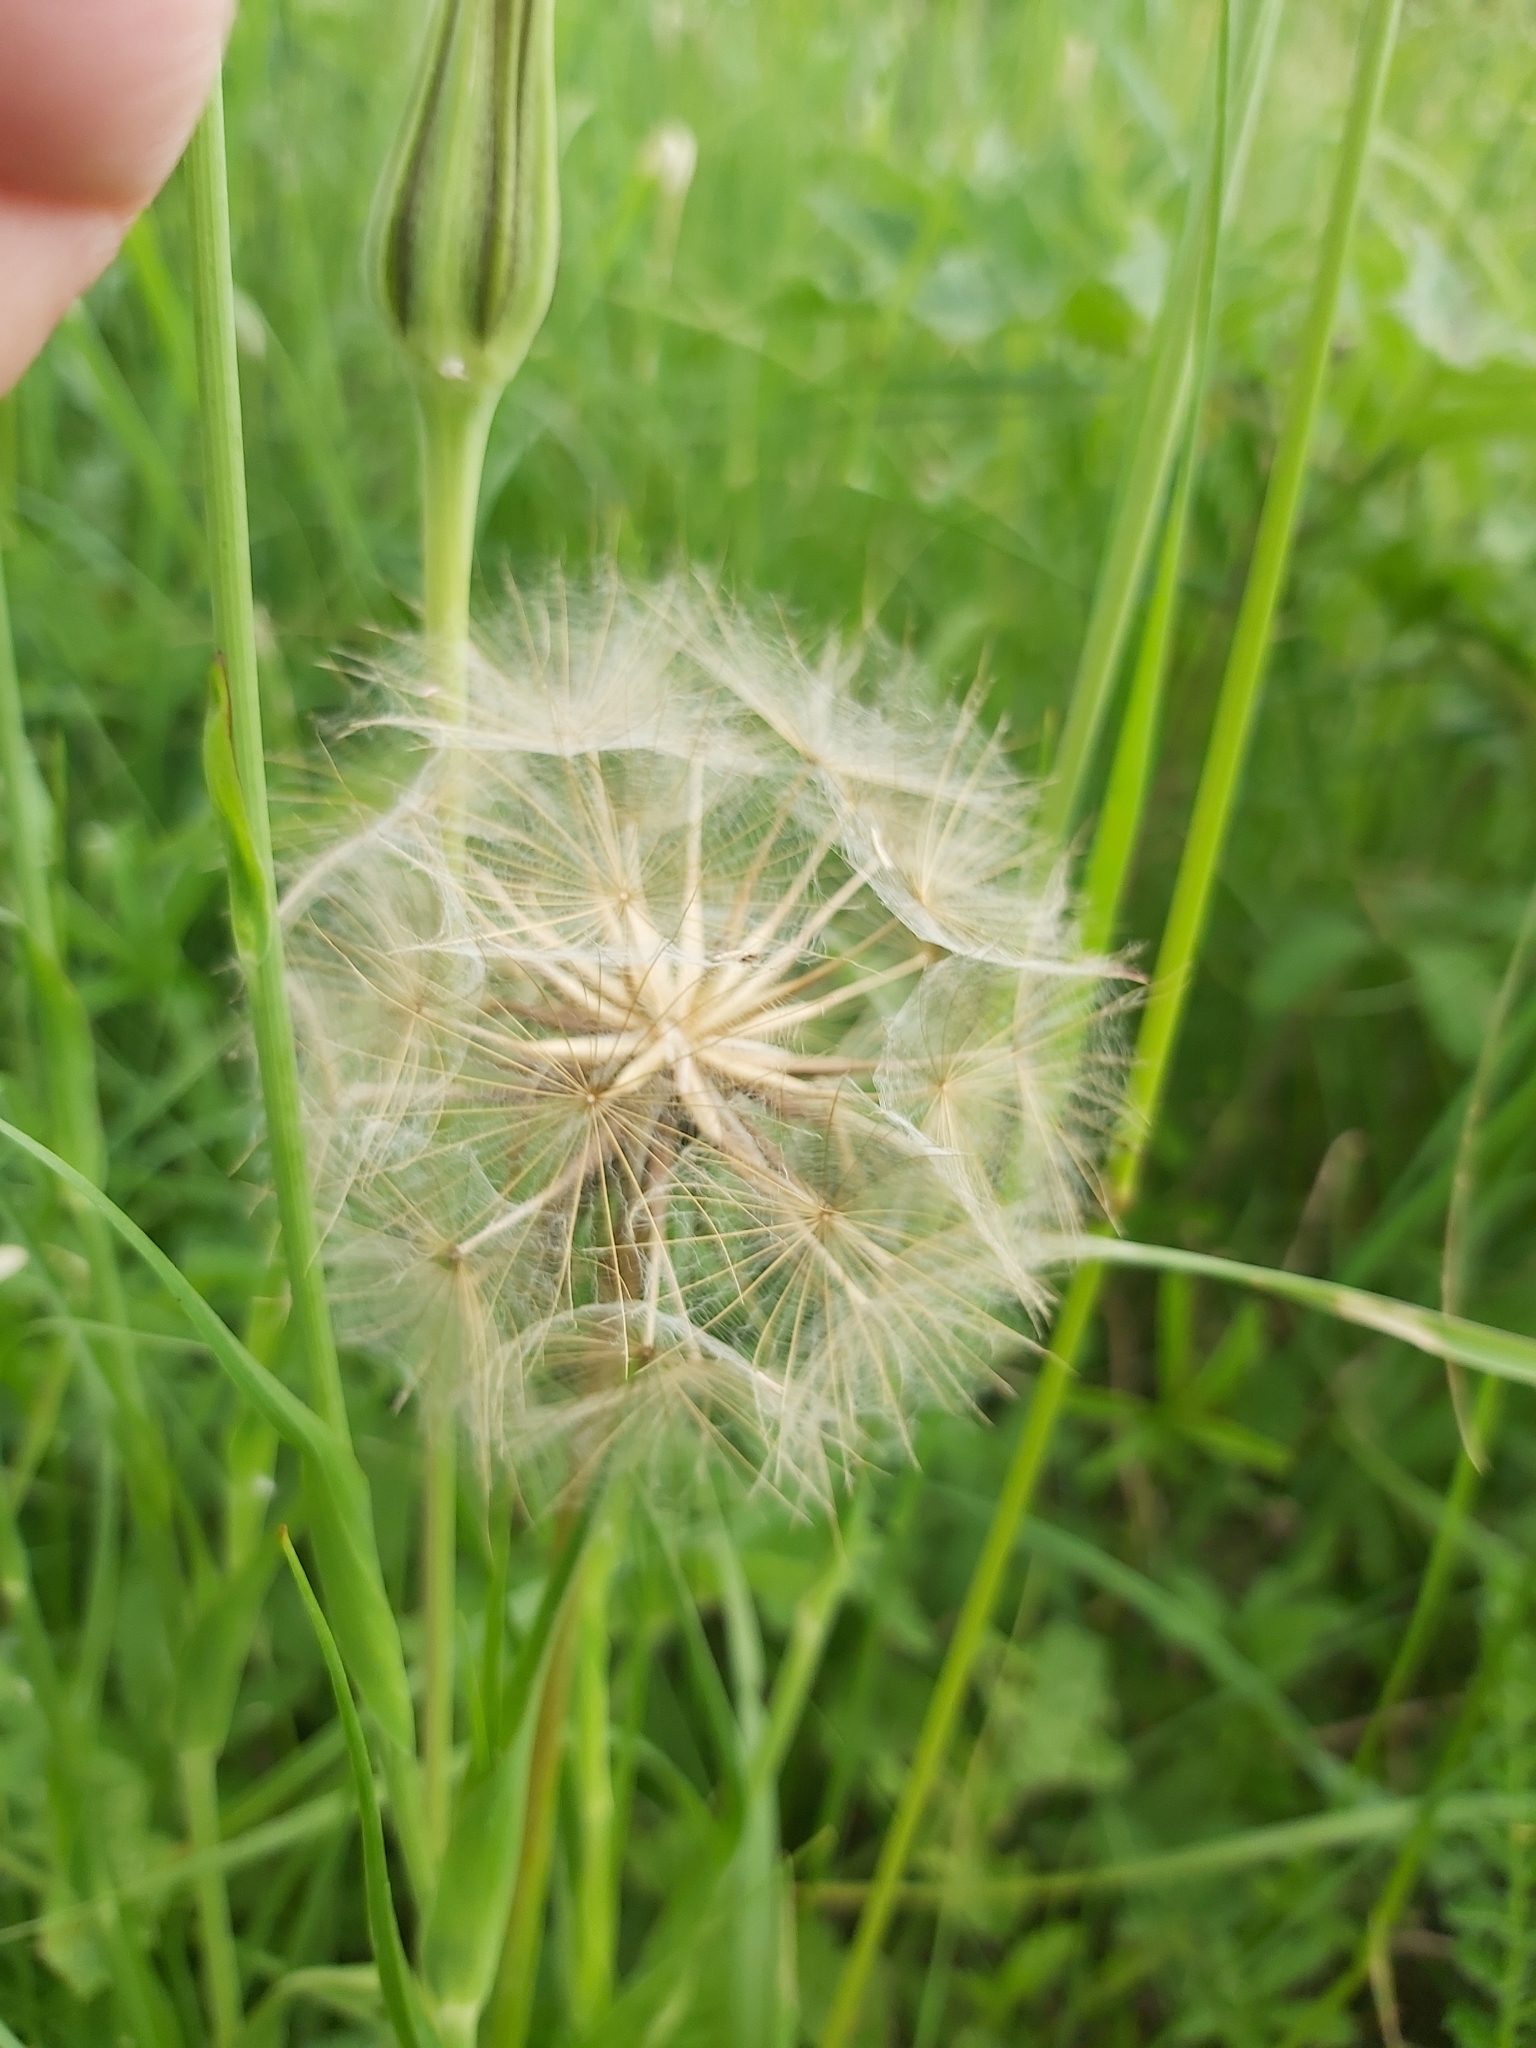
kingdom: Plantae
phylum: Tracheophyta
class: Magnoliopsida
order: Asterales
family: Asteraceae
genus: Tragopogon
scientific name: Tragopogon pratensis
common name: Goat's-beard
